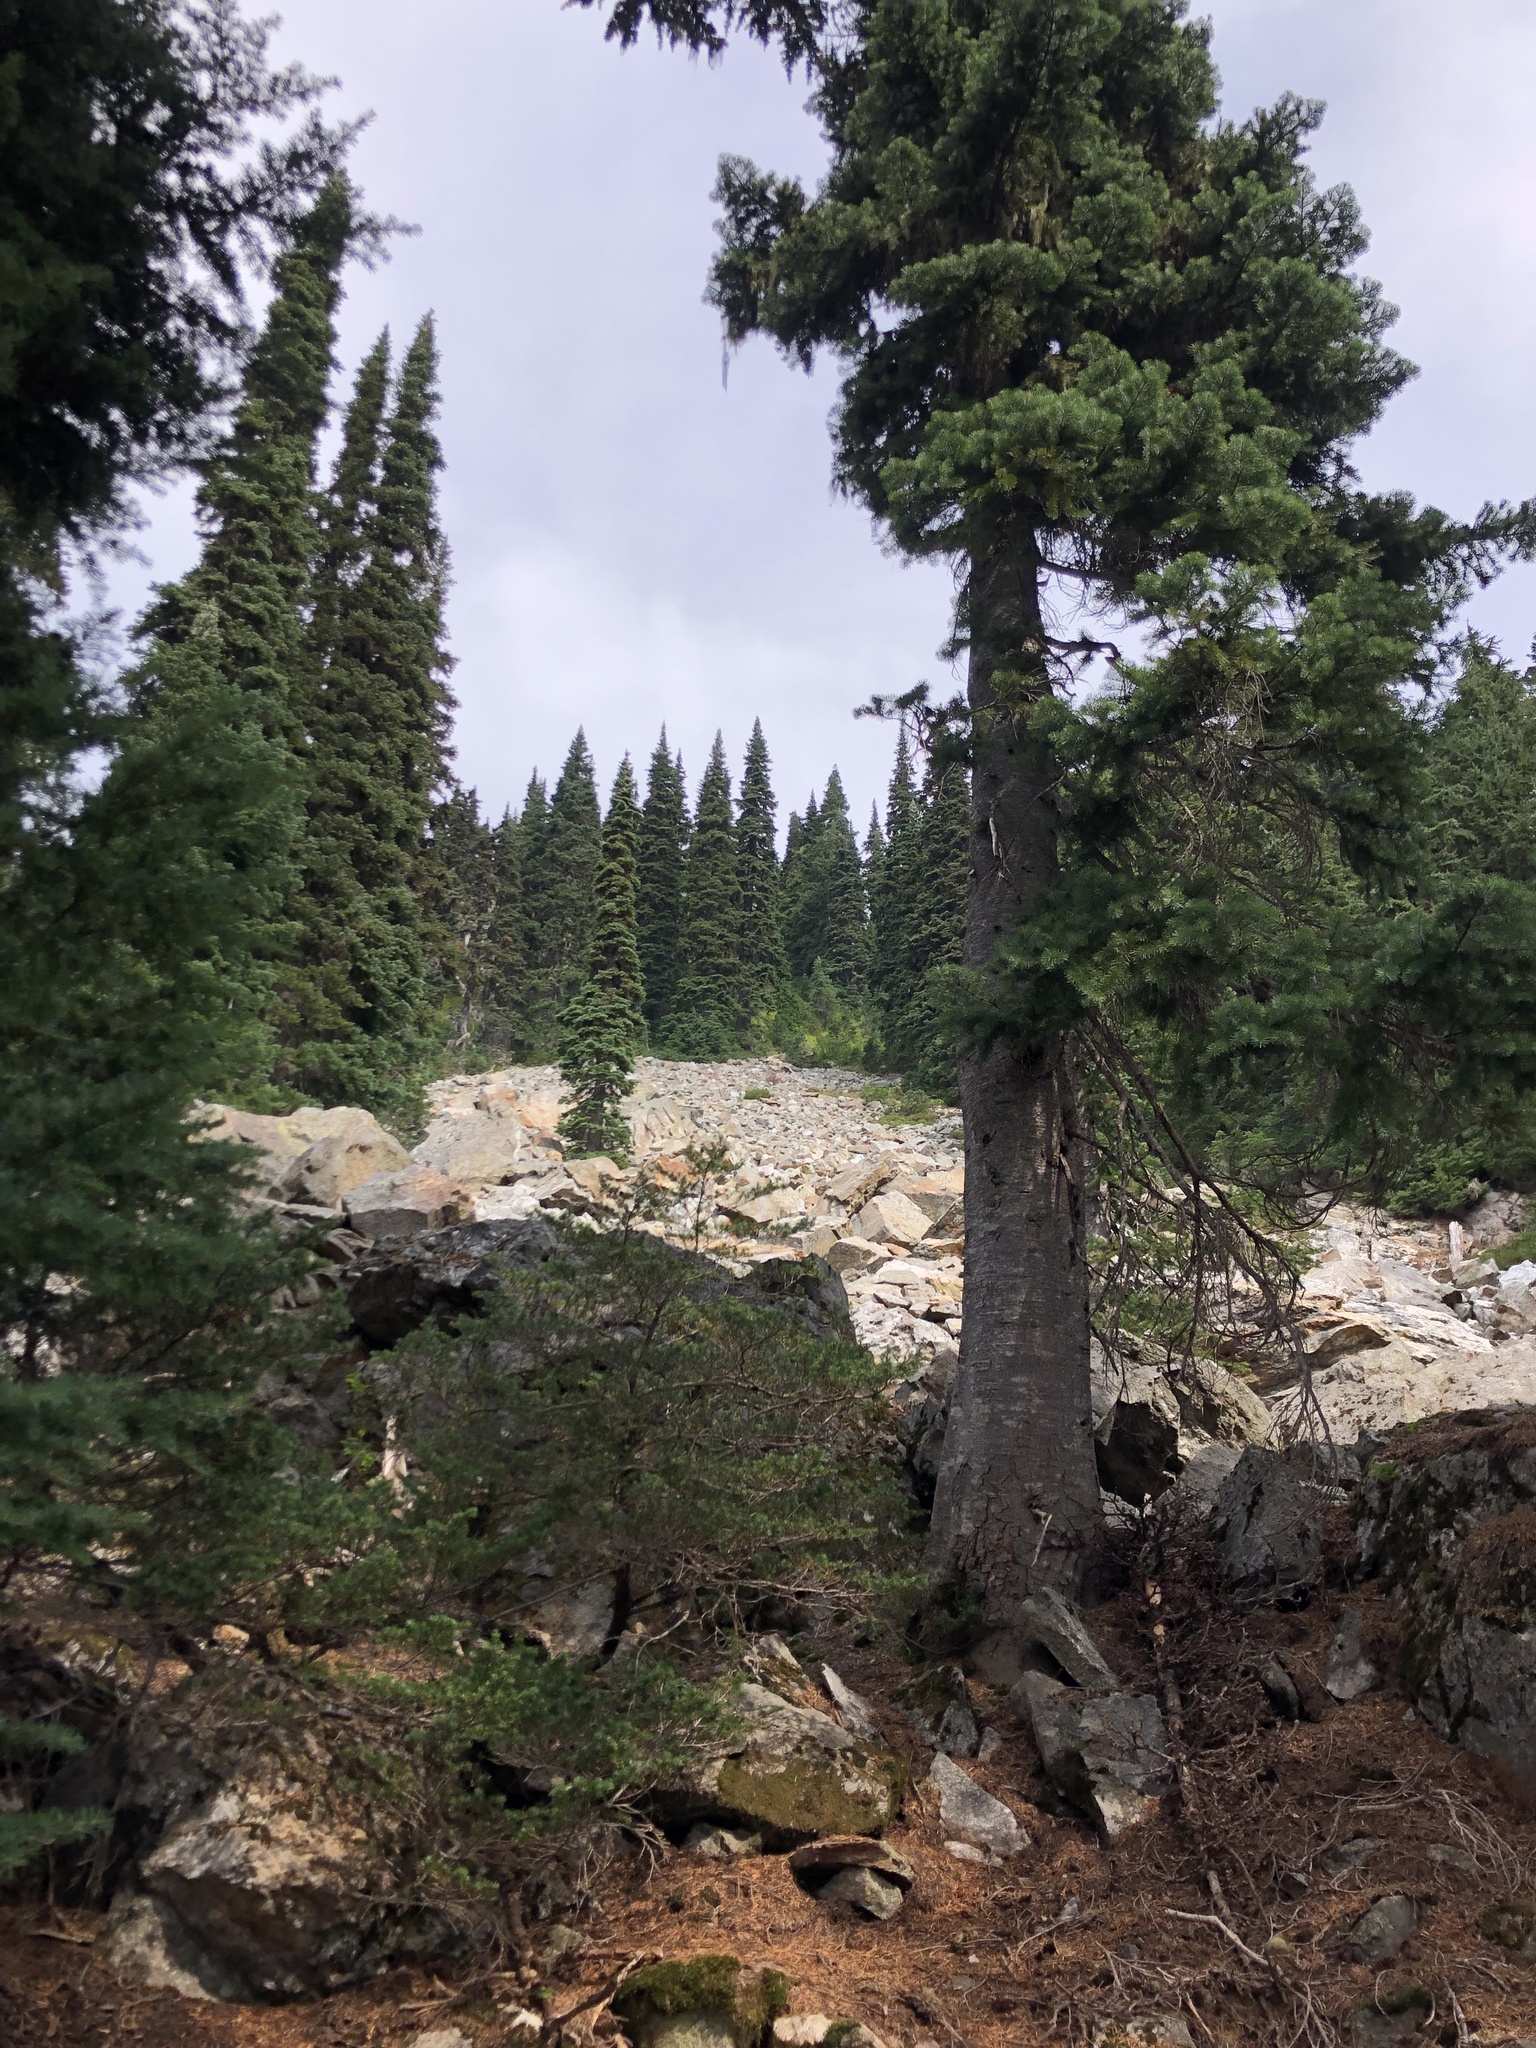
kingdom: Plantae
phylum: Tracheophyta
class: Pinopsida
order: Pinales
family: Pinaceae
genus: Abies
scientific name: Abies lasiocarpa
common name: Subalpine fir
